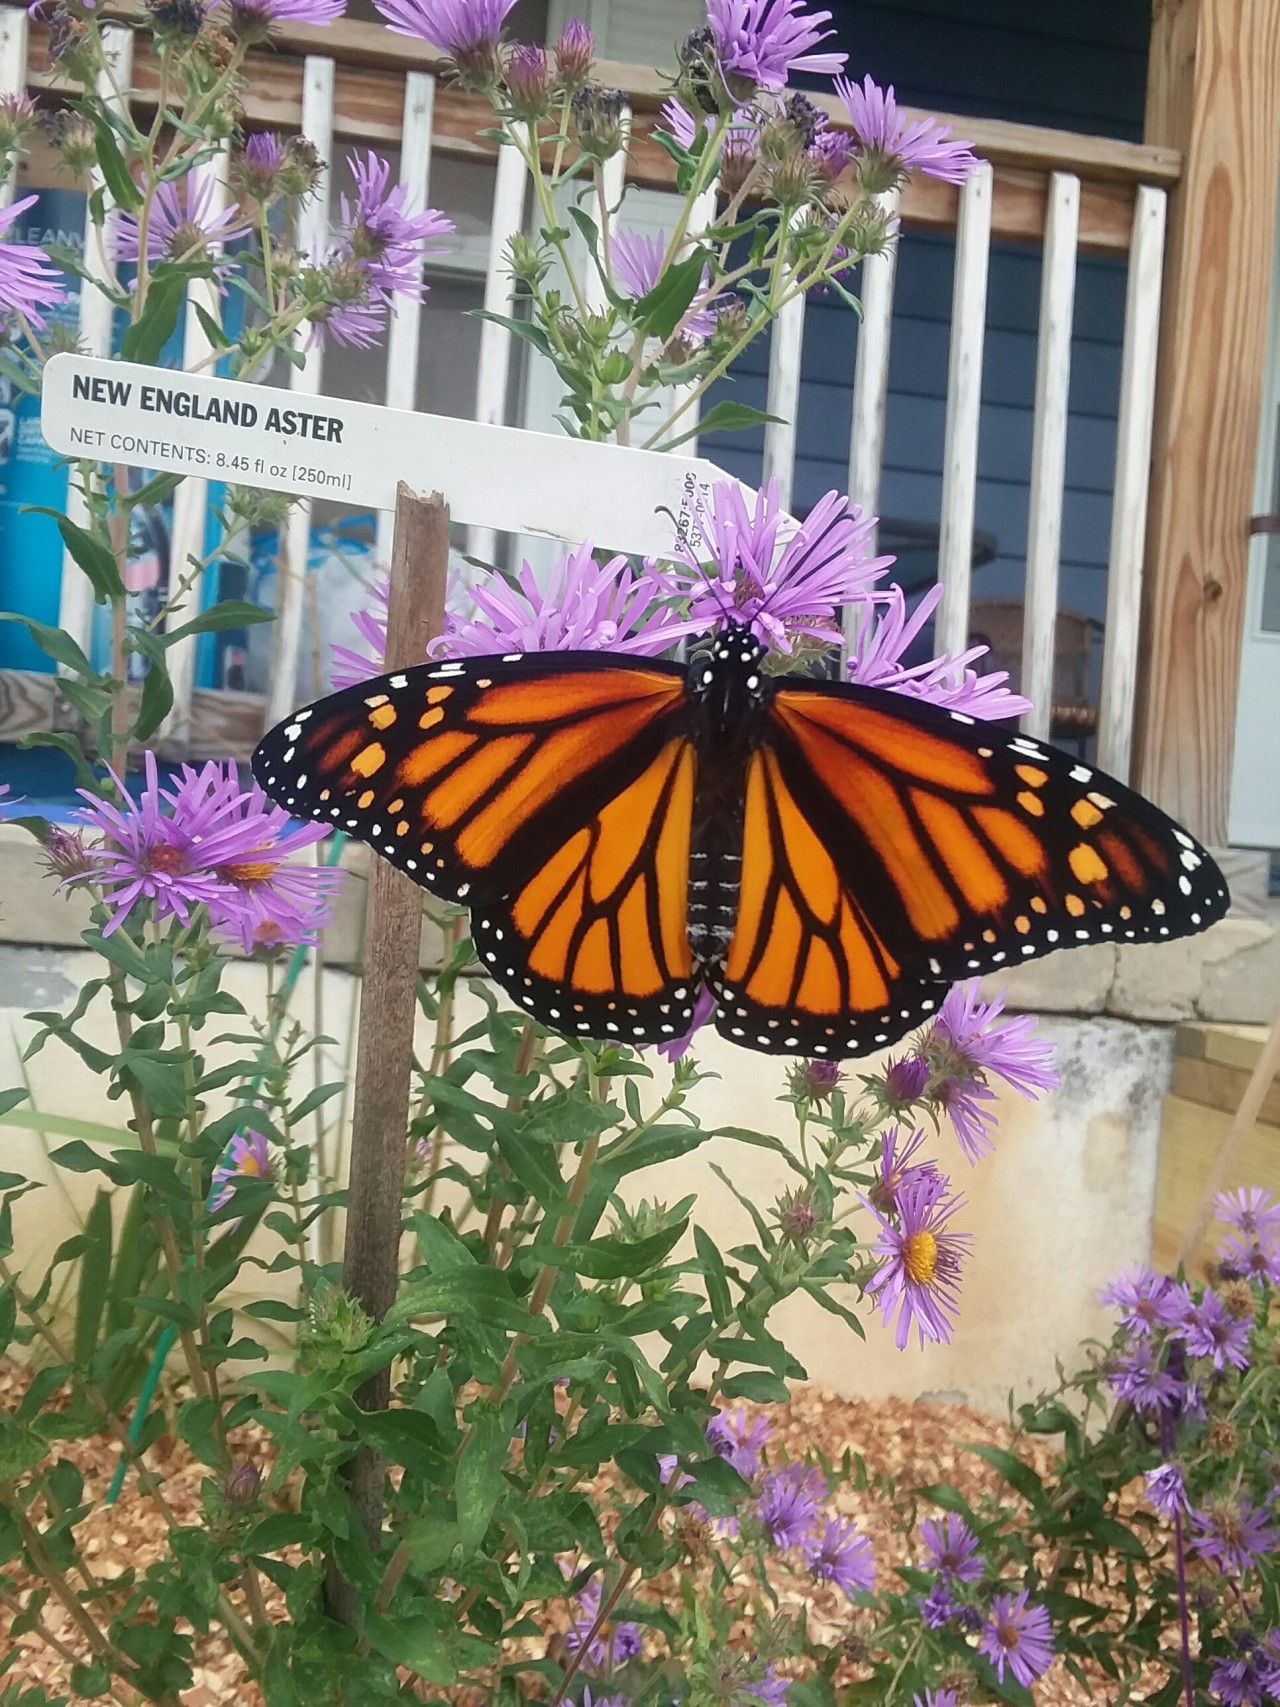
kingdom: Animalia
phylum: Arthropoda
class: Insecta
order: Lepidoptera
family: Nymphalidae
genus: Danaus
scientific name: Danaus plexippus
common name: Monarch
